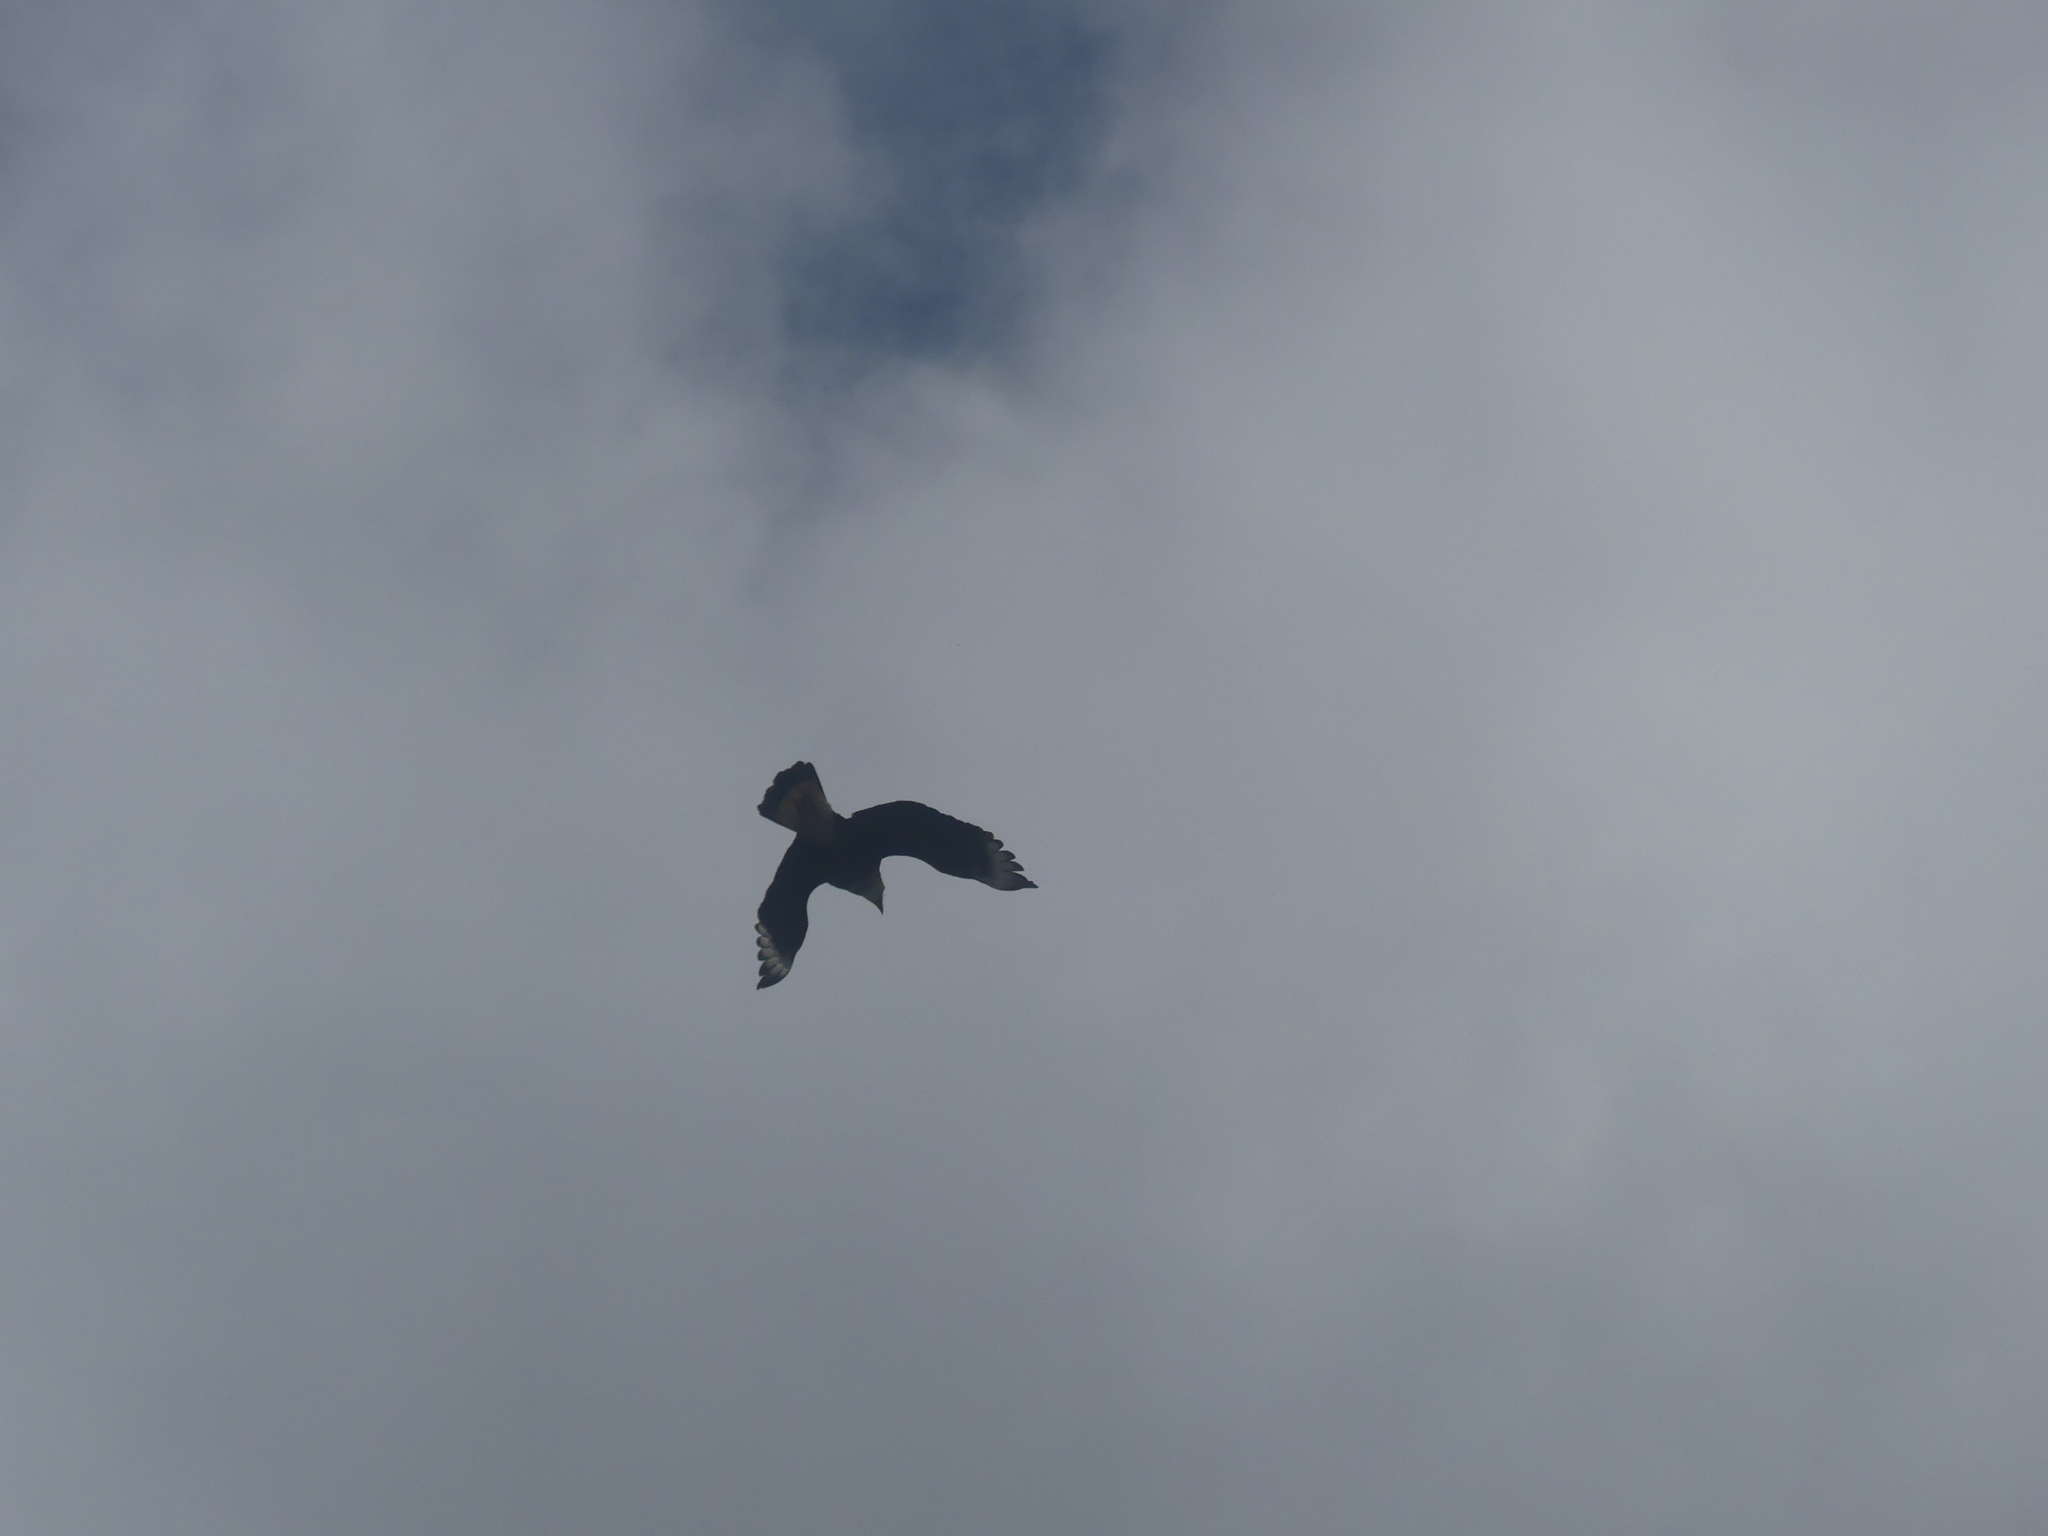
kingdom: Animalia
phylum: Chordata
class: Aves
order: Falconiformes
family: Falconidae
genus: Caracara
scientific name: Caracara plancus
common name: Southern caracara
